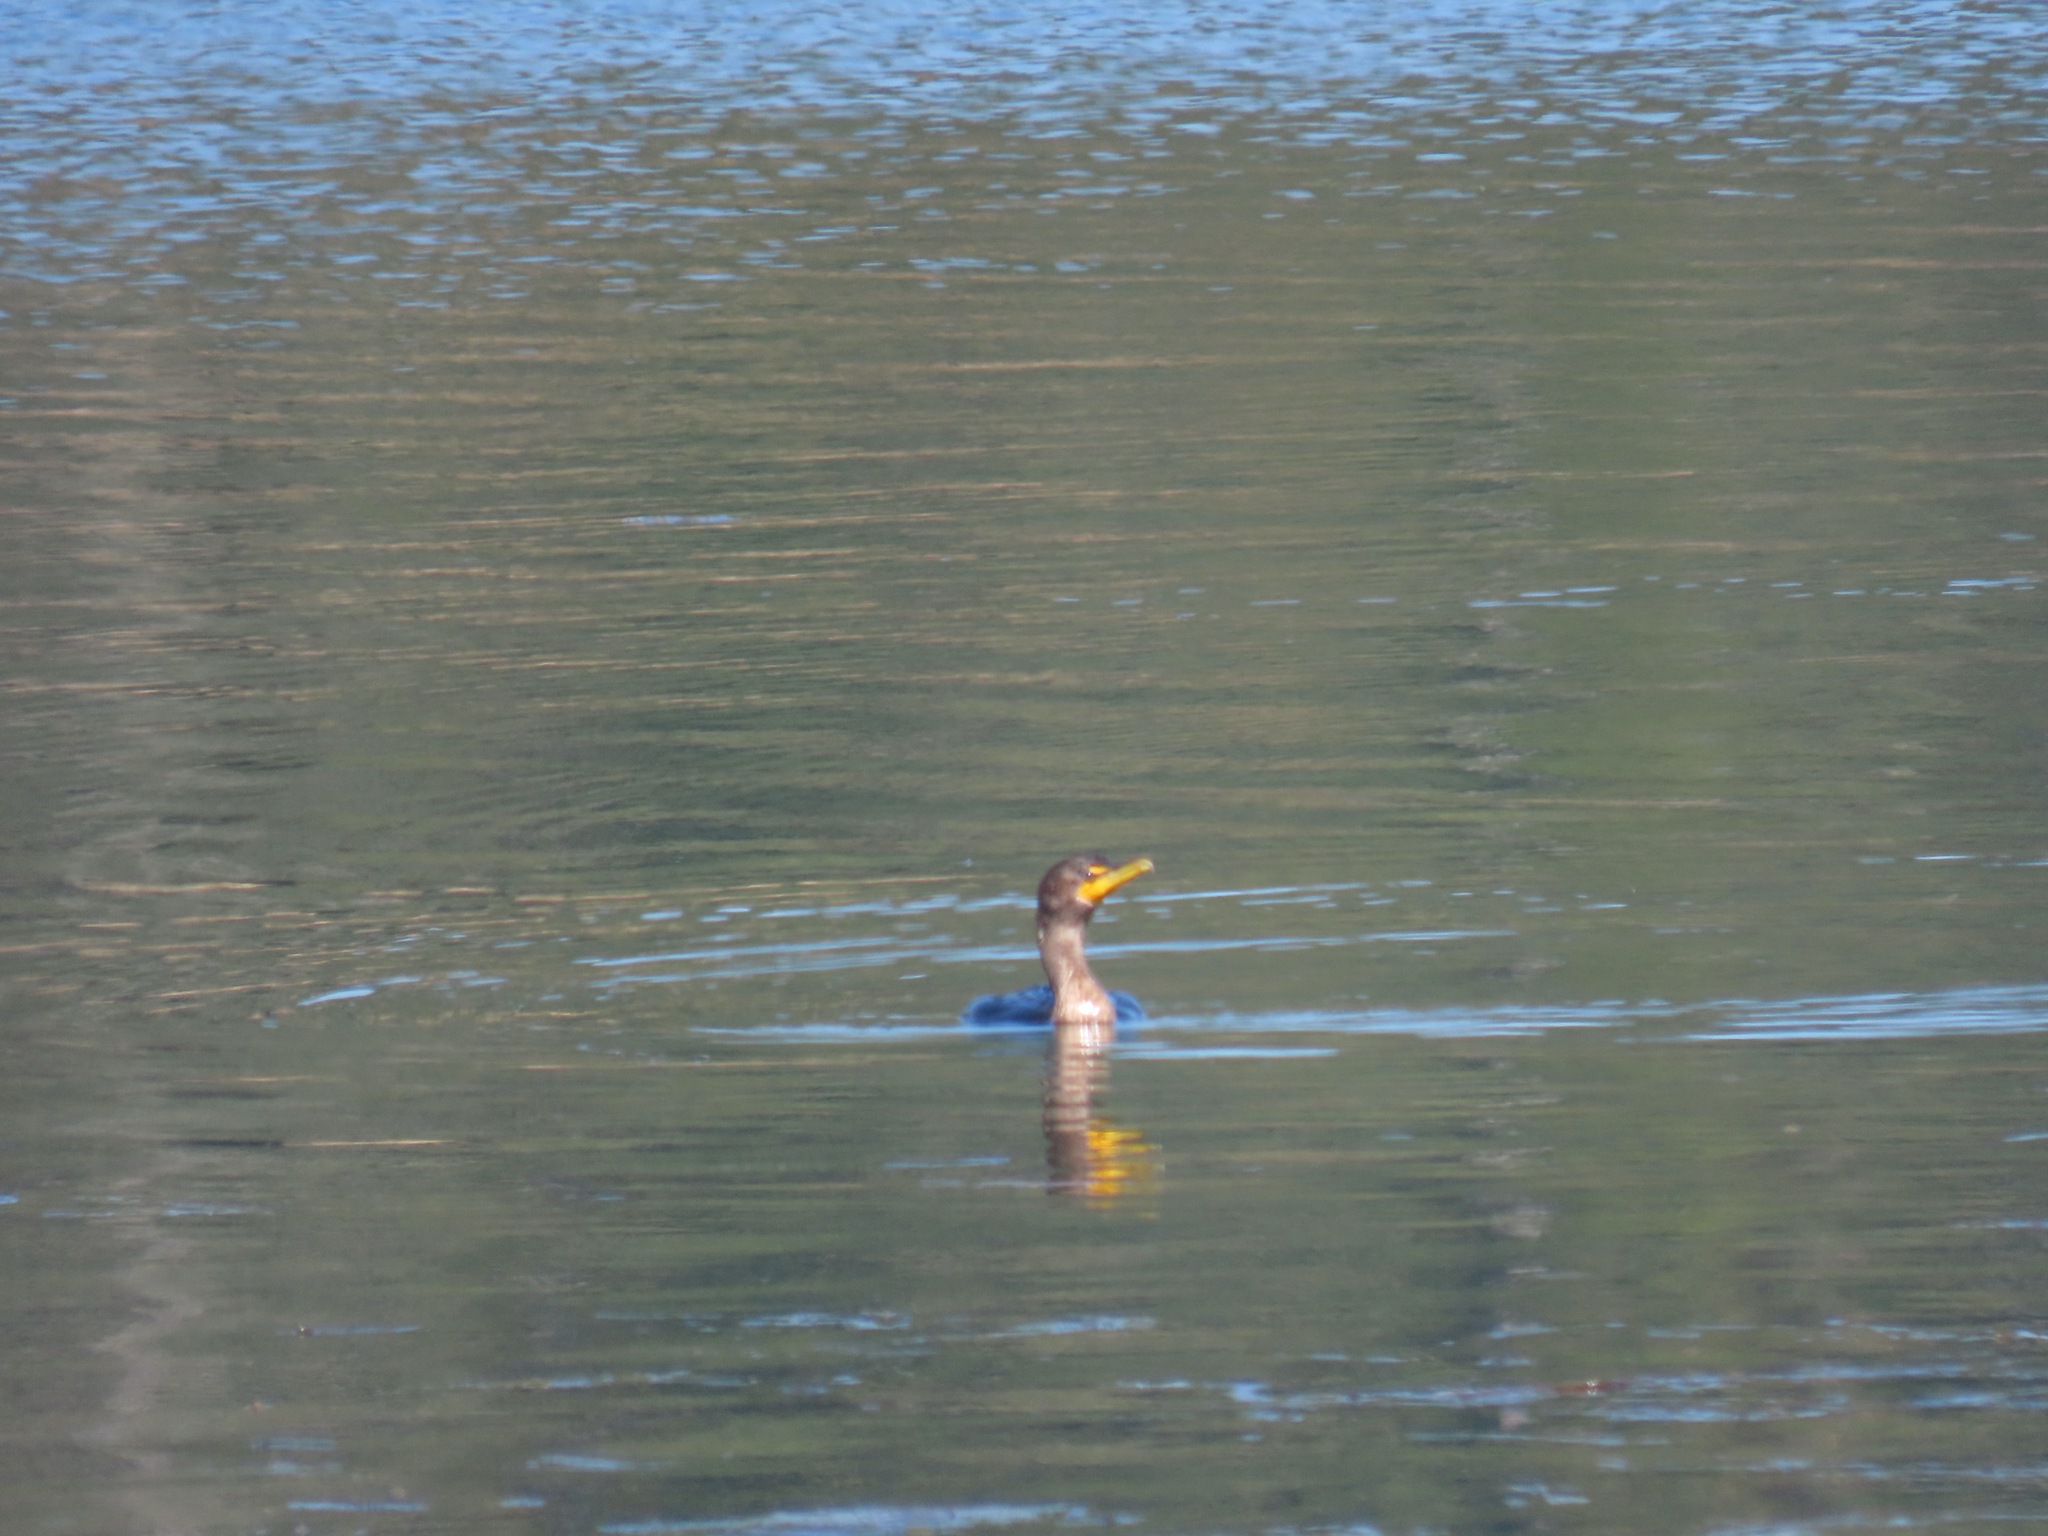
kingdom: Animalia
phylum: Chordata
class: Aves
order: Suliformes
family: Phalacrocoracidae
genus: Phalacrocorax
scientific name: Phalacrocorax auritus
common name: Double-crested cormorant
